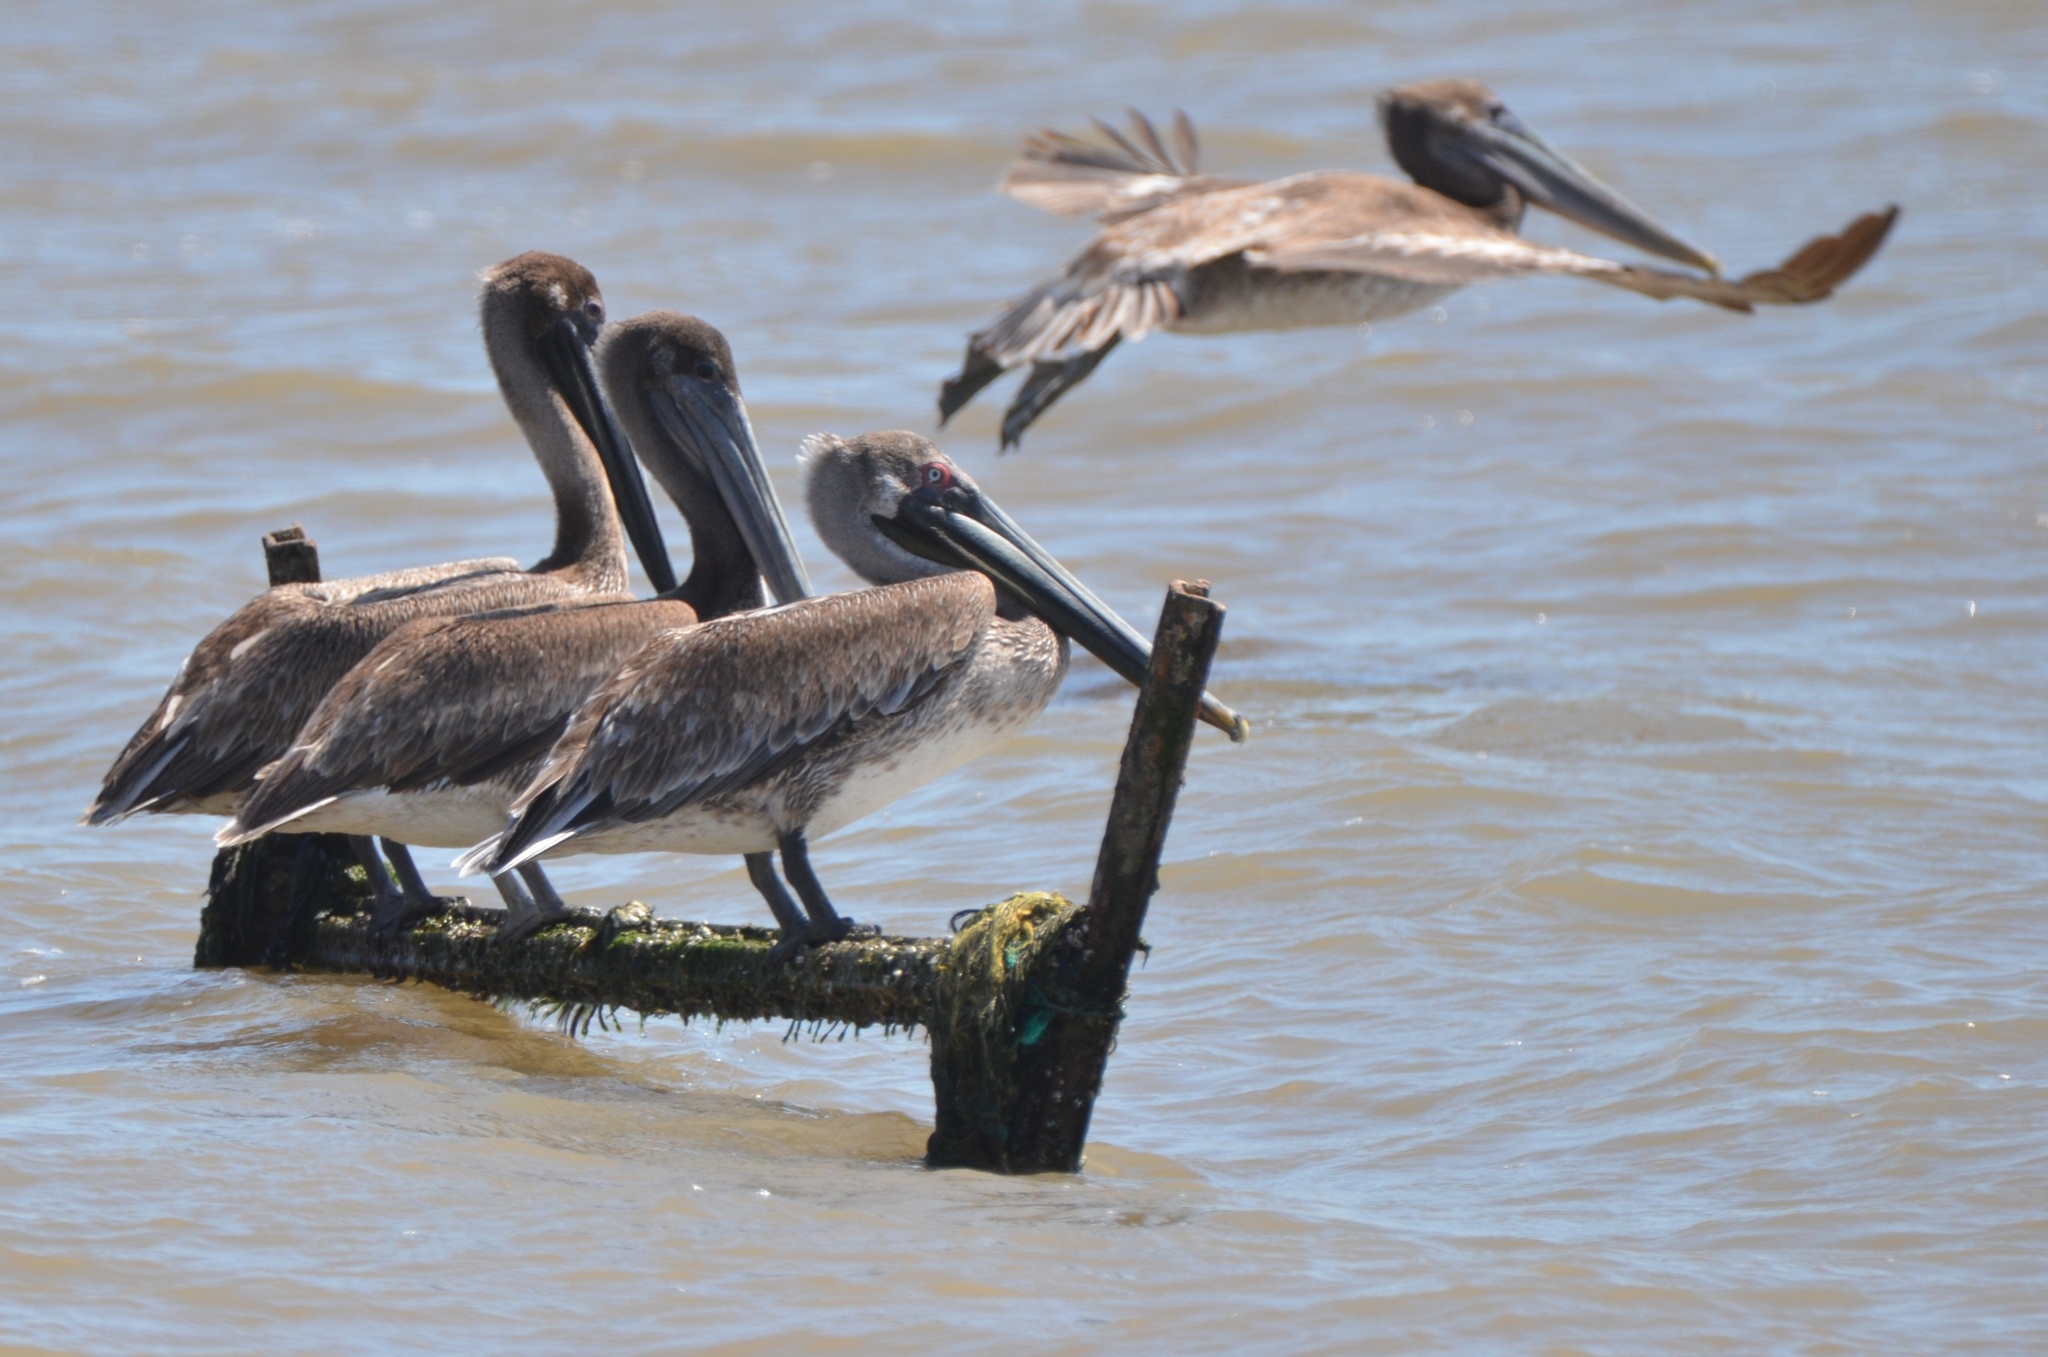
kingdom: Animalia
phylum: Chordata
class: Aves
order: Pelecaniformes
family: Pelecanidae
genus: Pelecanus
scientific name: Pelecanus occidentalis
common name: Brown pelican
